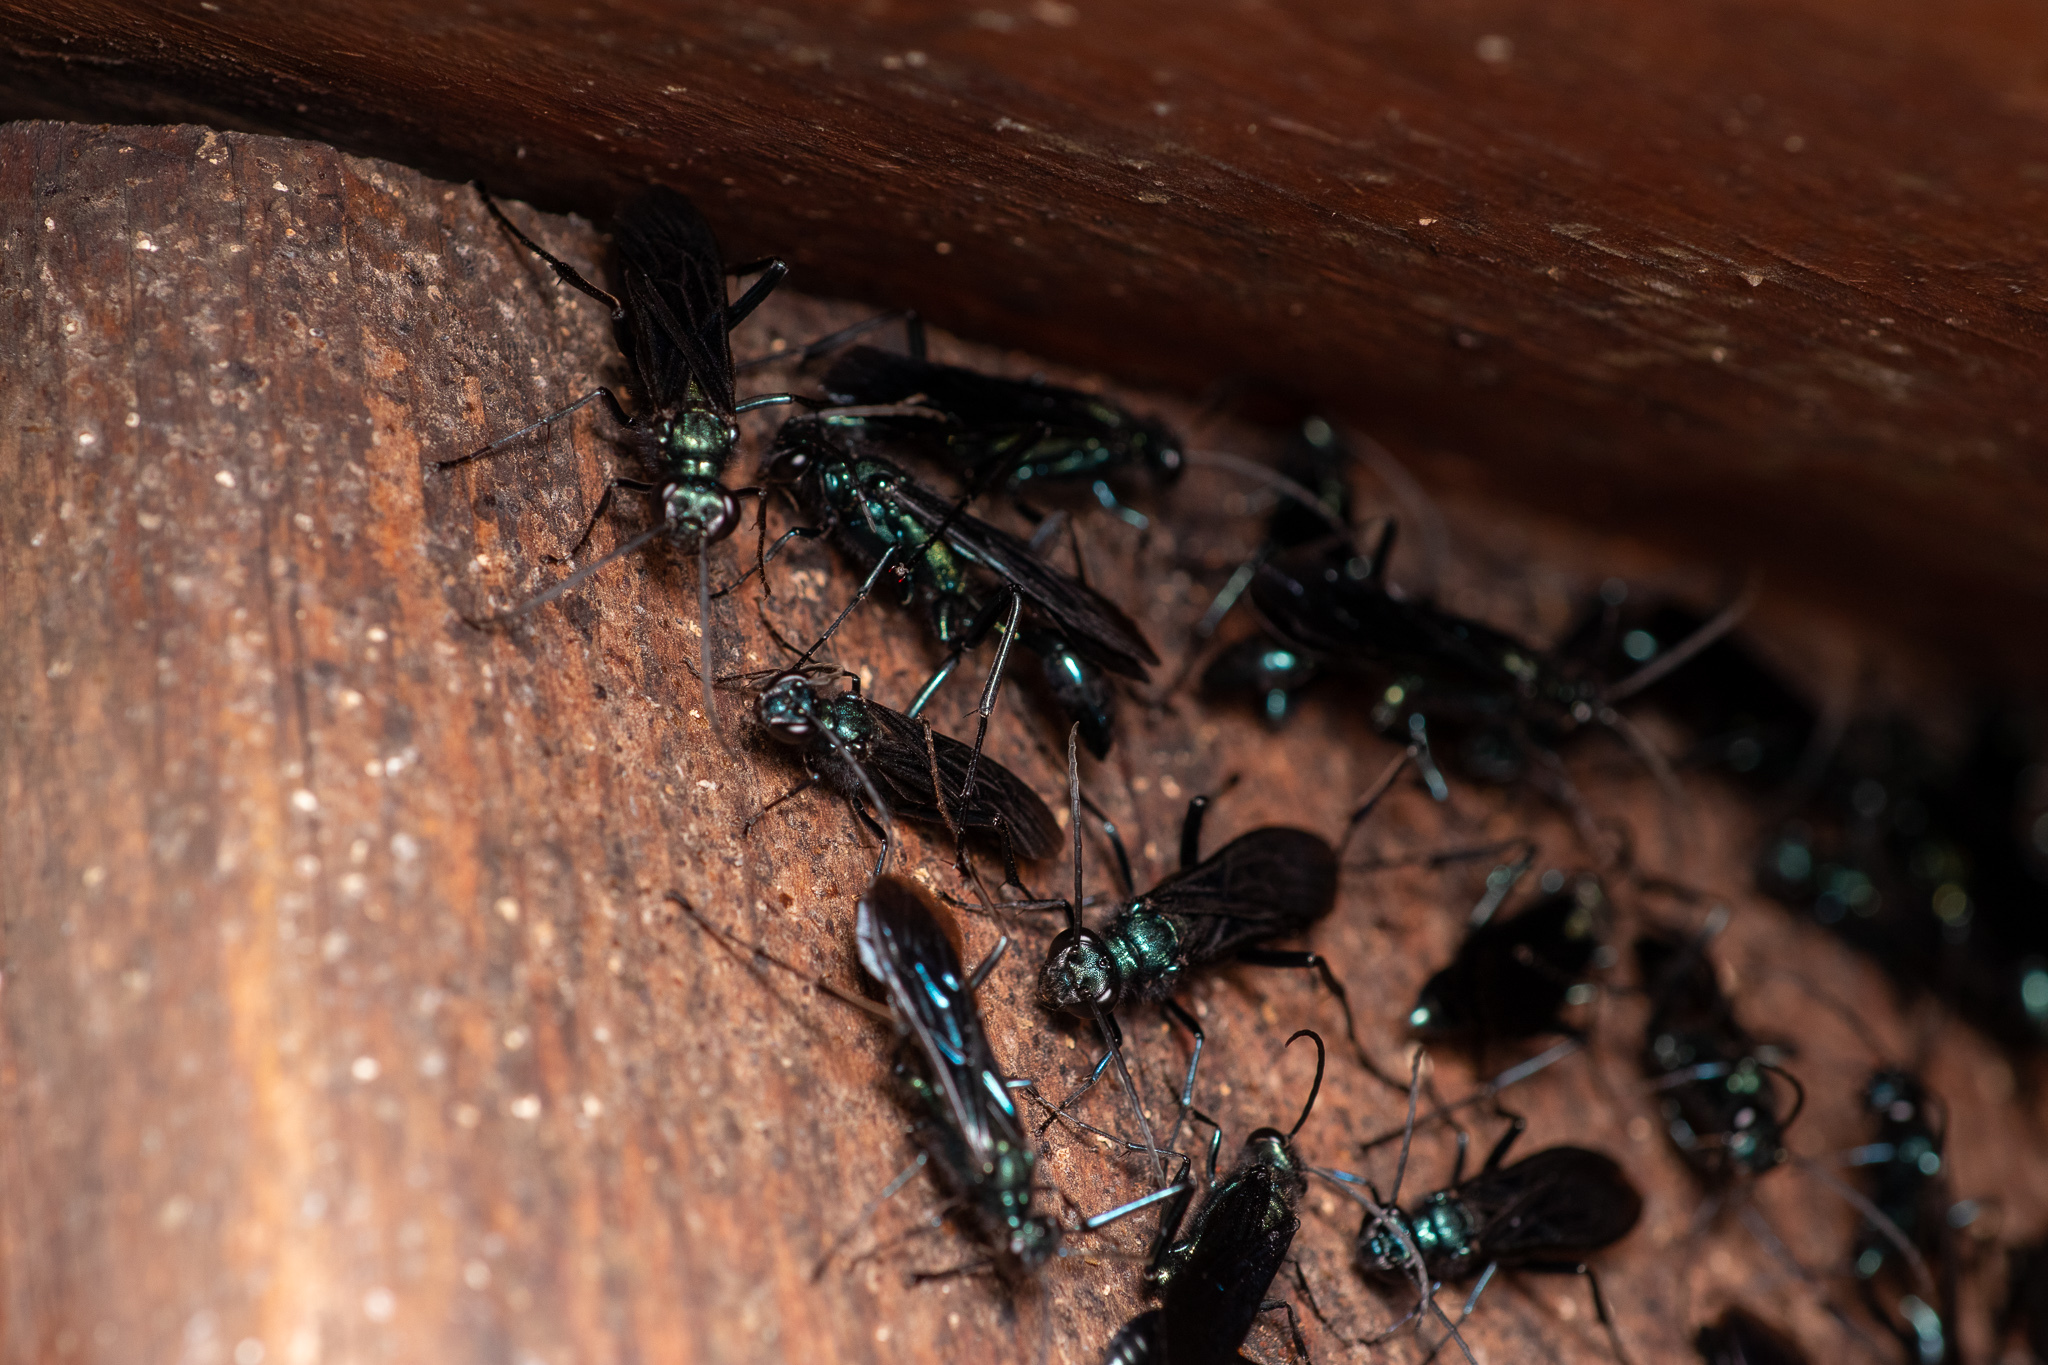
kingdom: Animalia
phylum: Arthropoda
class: Insecta
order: Hymenoptera
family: Sphecidae
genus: Chalybion
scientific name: Chalybion californicum
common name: Mud dauber
